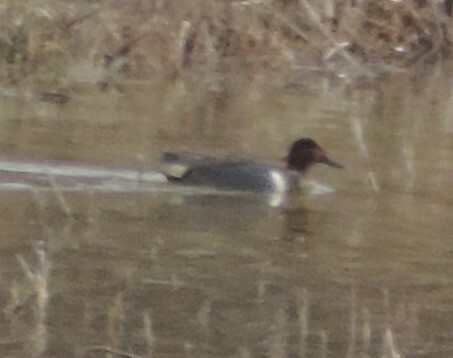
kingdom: Animalia
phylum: Chordata
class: Aves
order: Anseriformes
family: Anatidae
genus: Anas
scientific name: Anas crecca
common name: Eurasian teal
